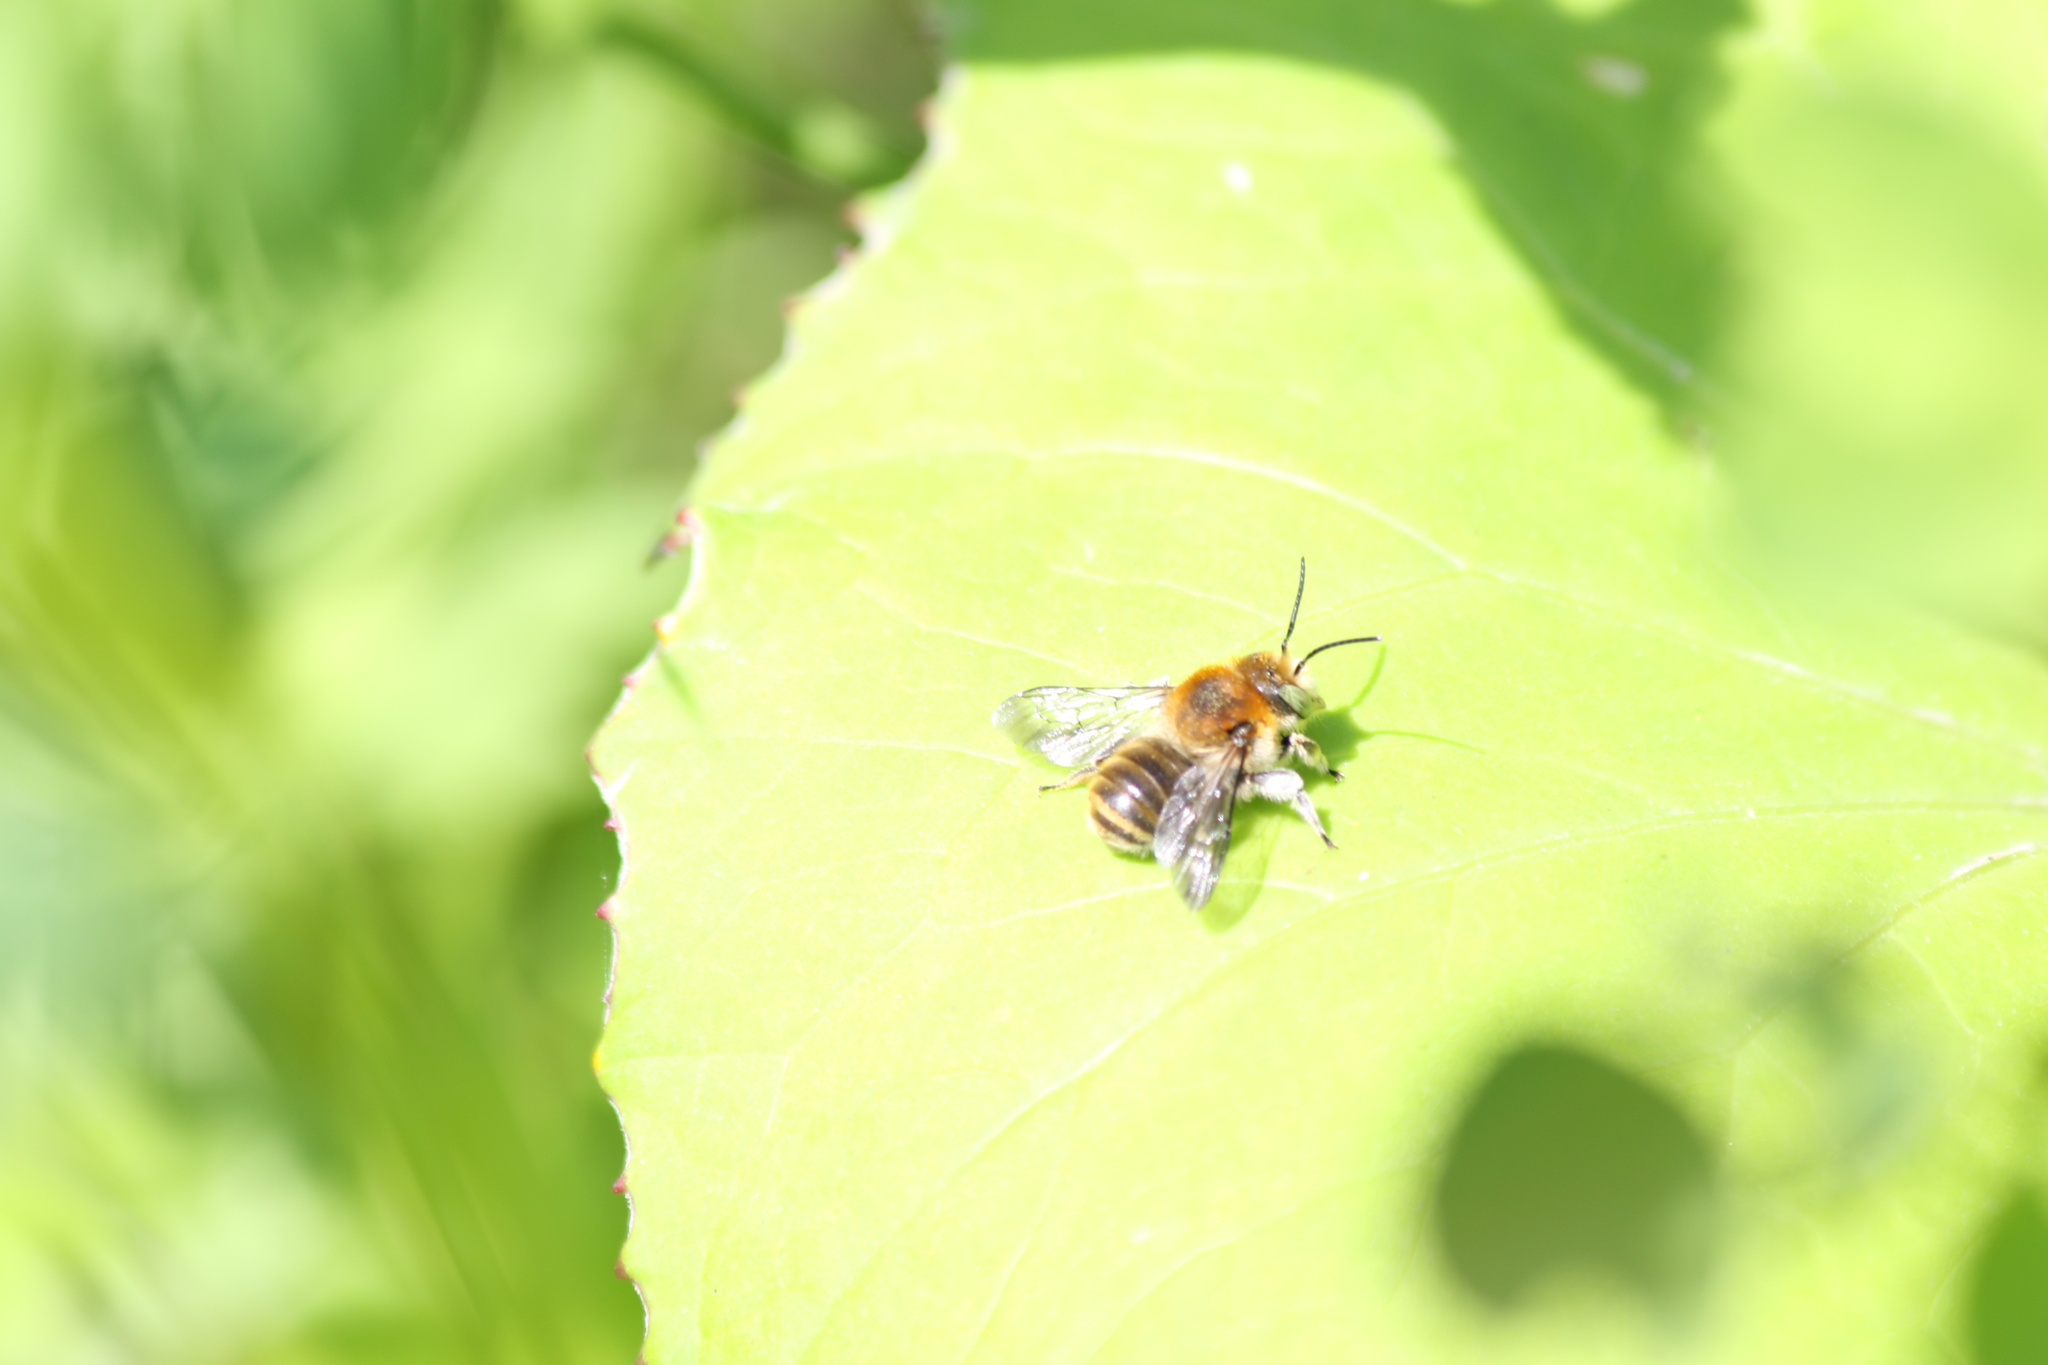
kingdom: Animalia
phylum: Arthropoda
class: Insecta
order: Hymenoptera
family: Megachilidae
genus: Trachusa
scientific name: Trachusa byssina
